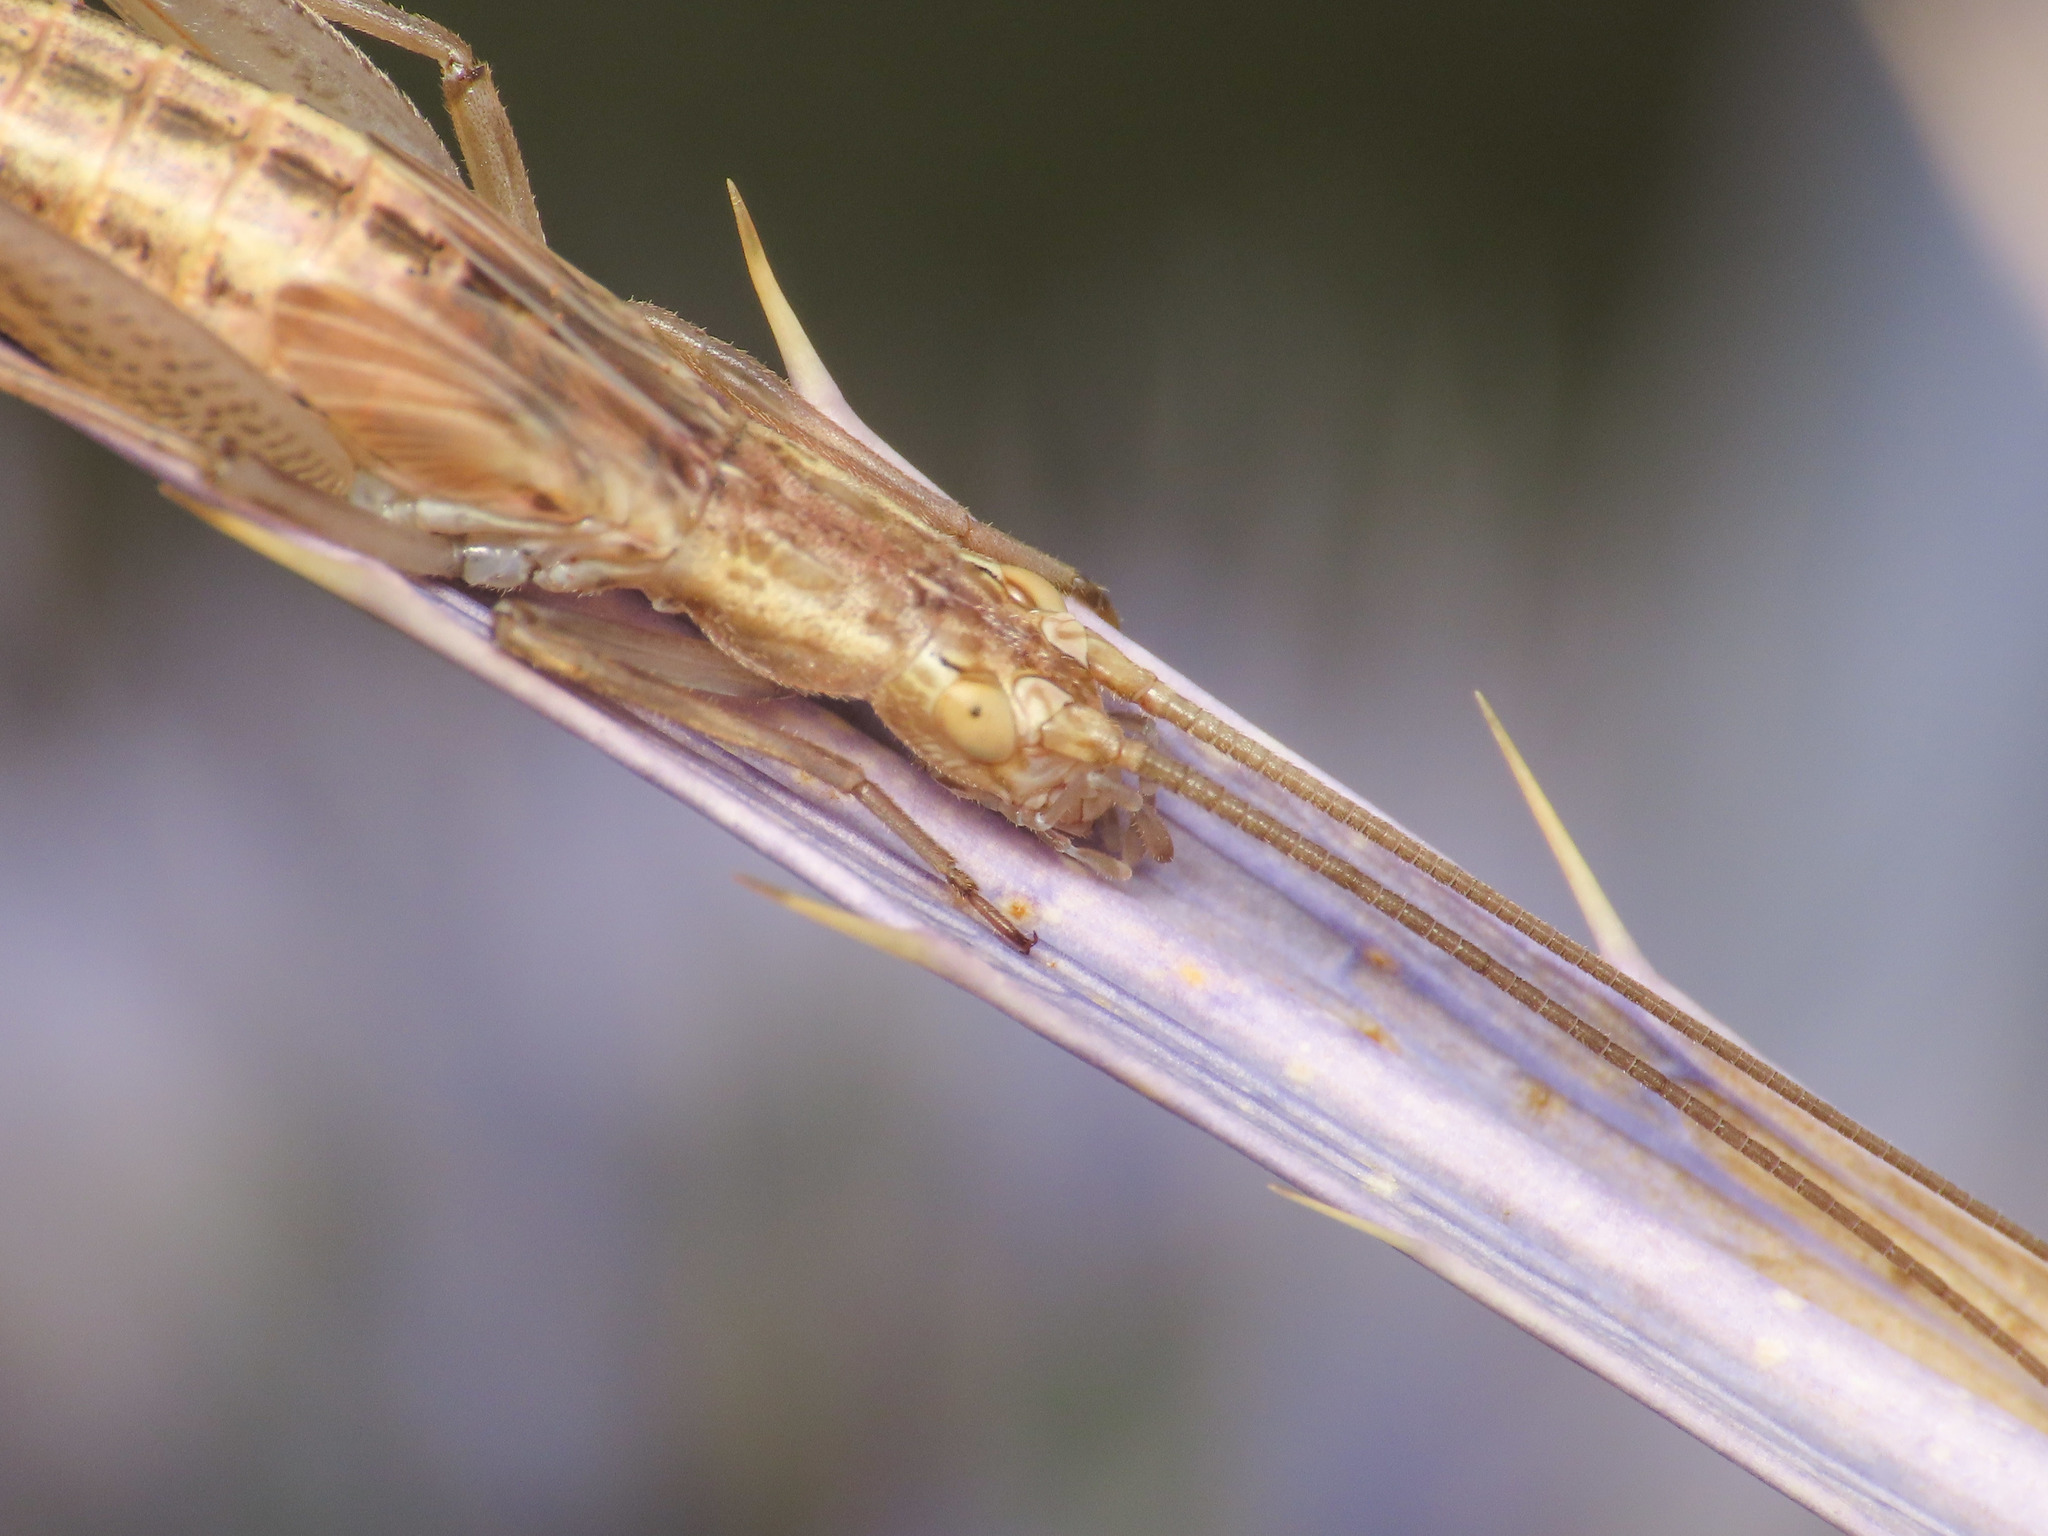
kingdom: Animalia
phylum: Arthropoda
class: Insecta
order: Orthoptera
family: Gryllidae
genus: Oecanthus
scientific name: Oecanthus pellucens
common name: Tree-cricket
